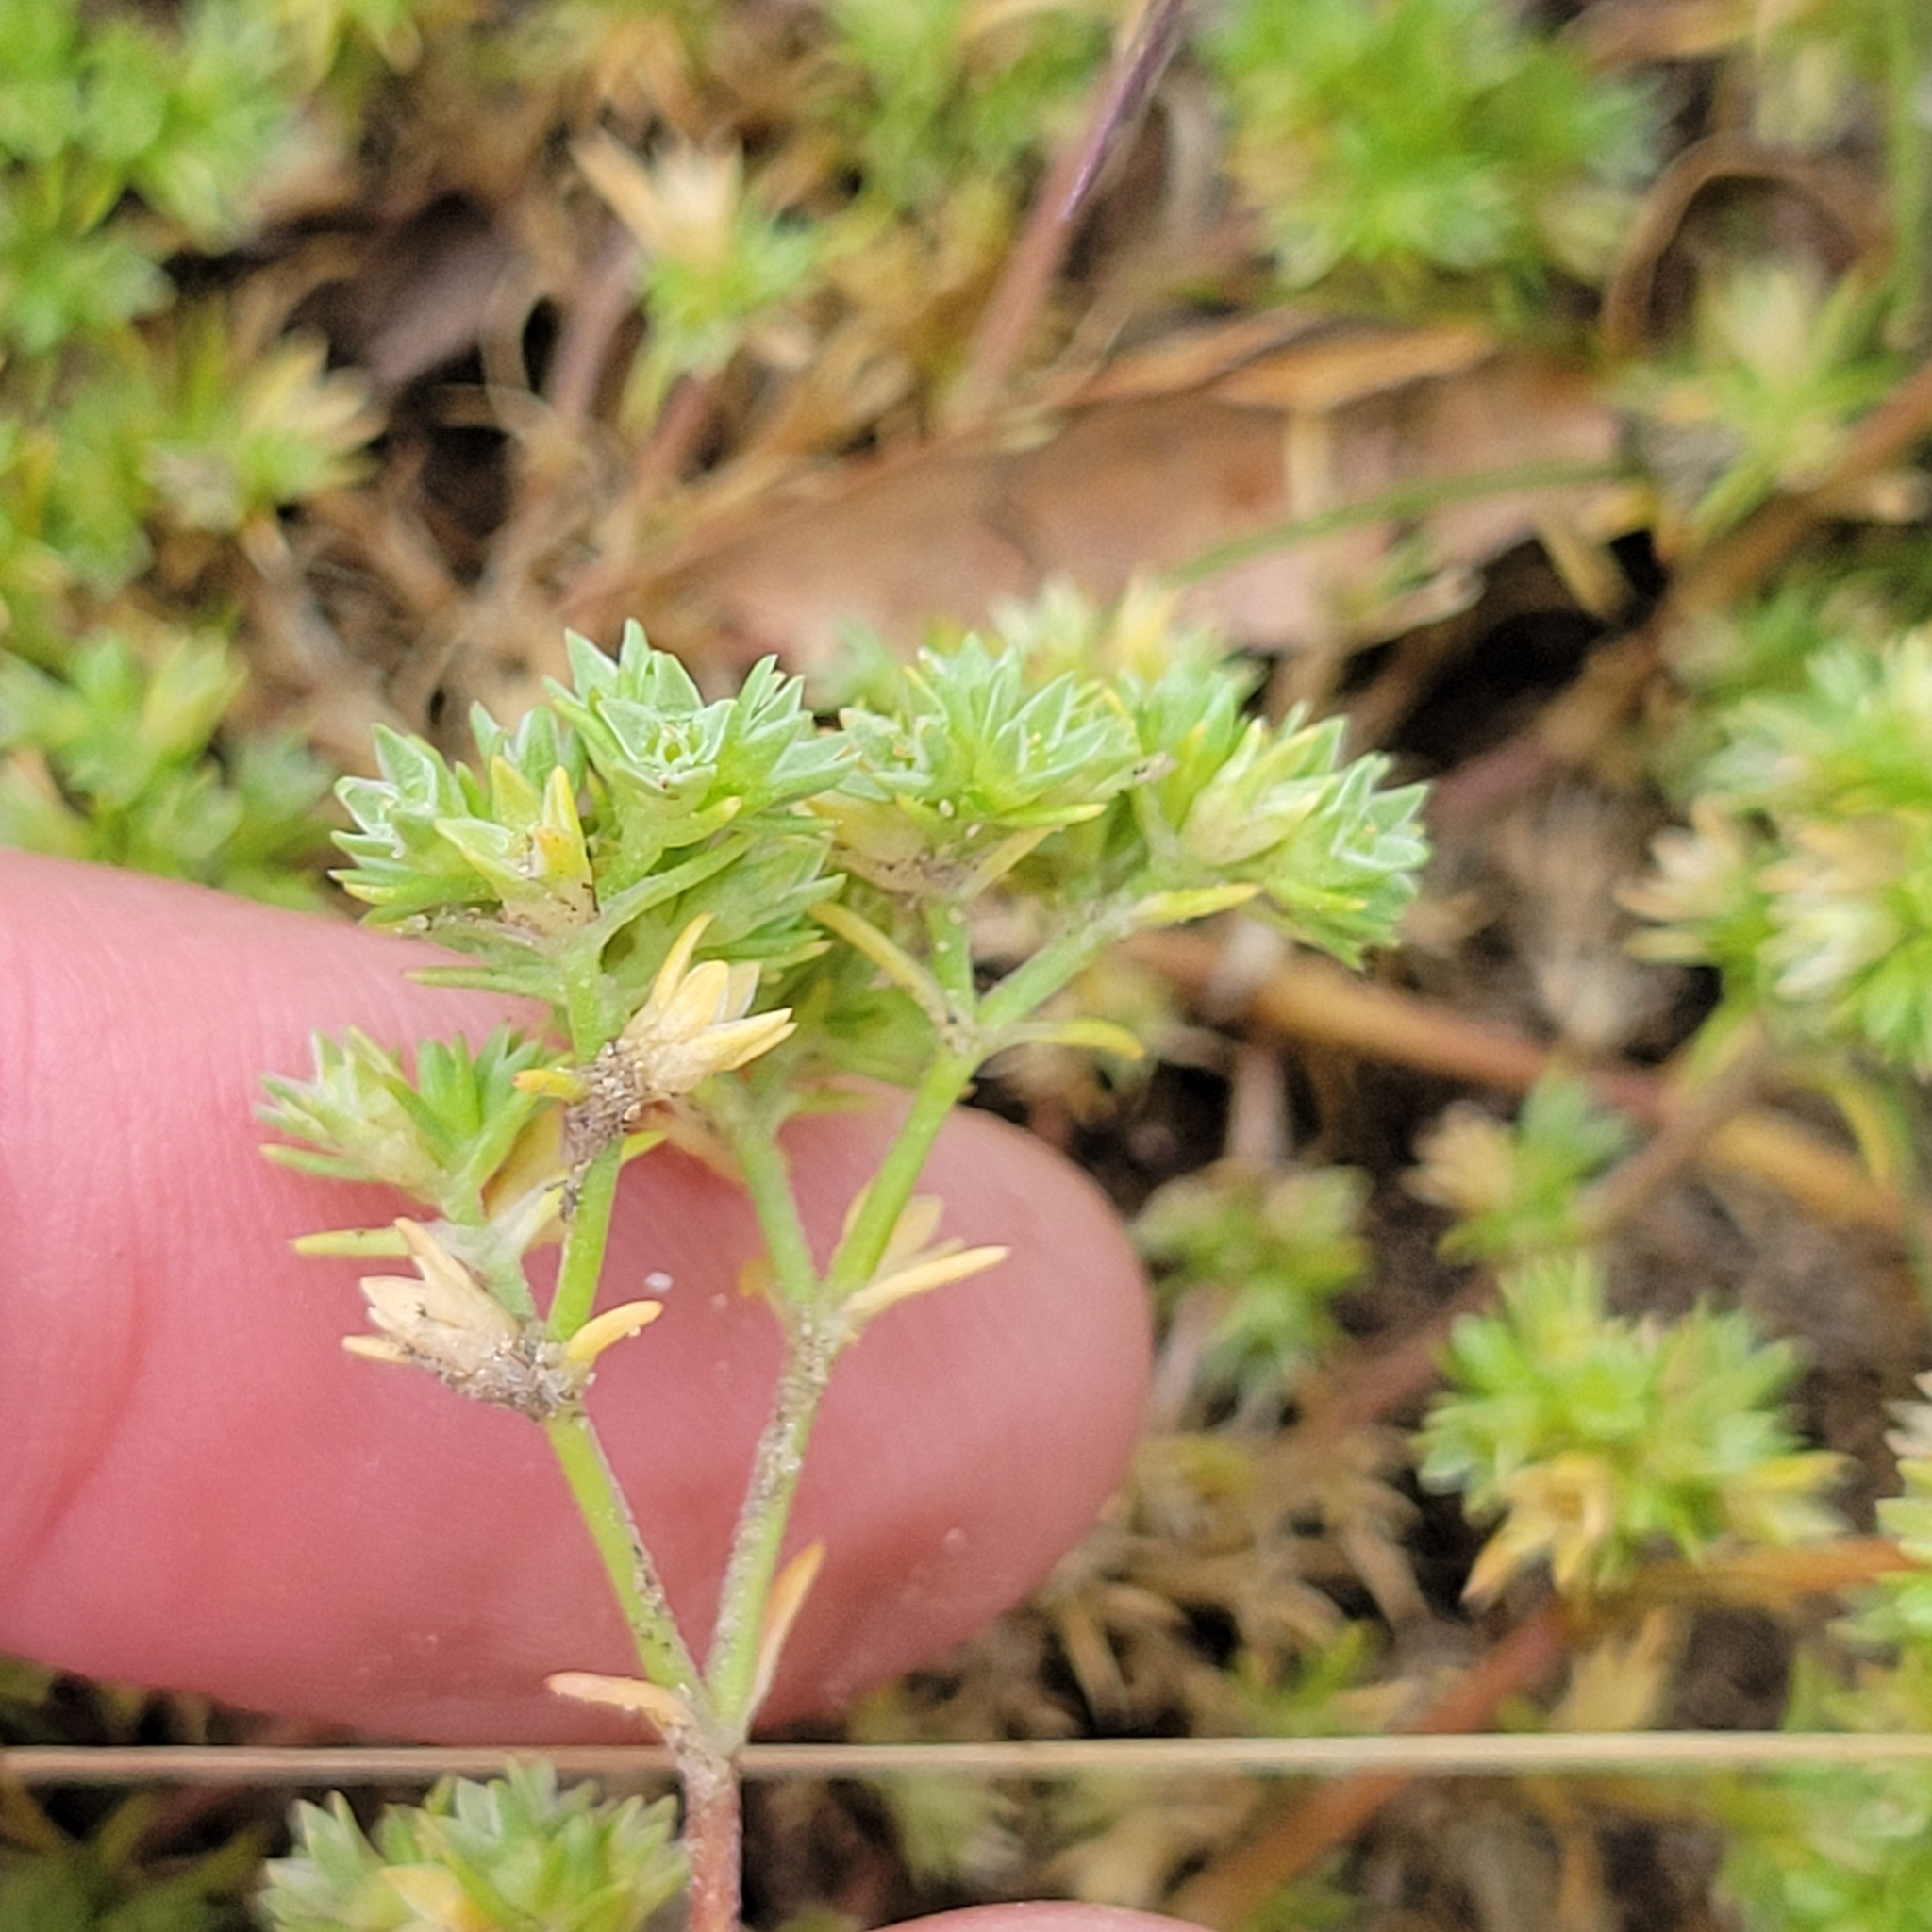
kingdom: Plantae
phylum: Tracheophyta
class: Magnoliopsida
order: Caryophyllales
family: Caryophyllaceae
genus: Scleranthus
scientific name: Scleranthus annuus
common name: Annual knawel
